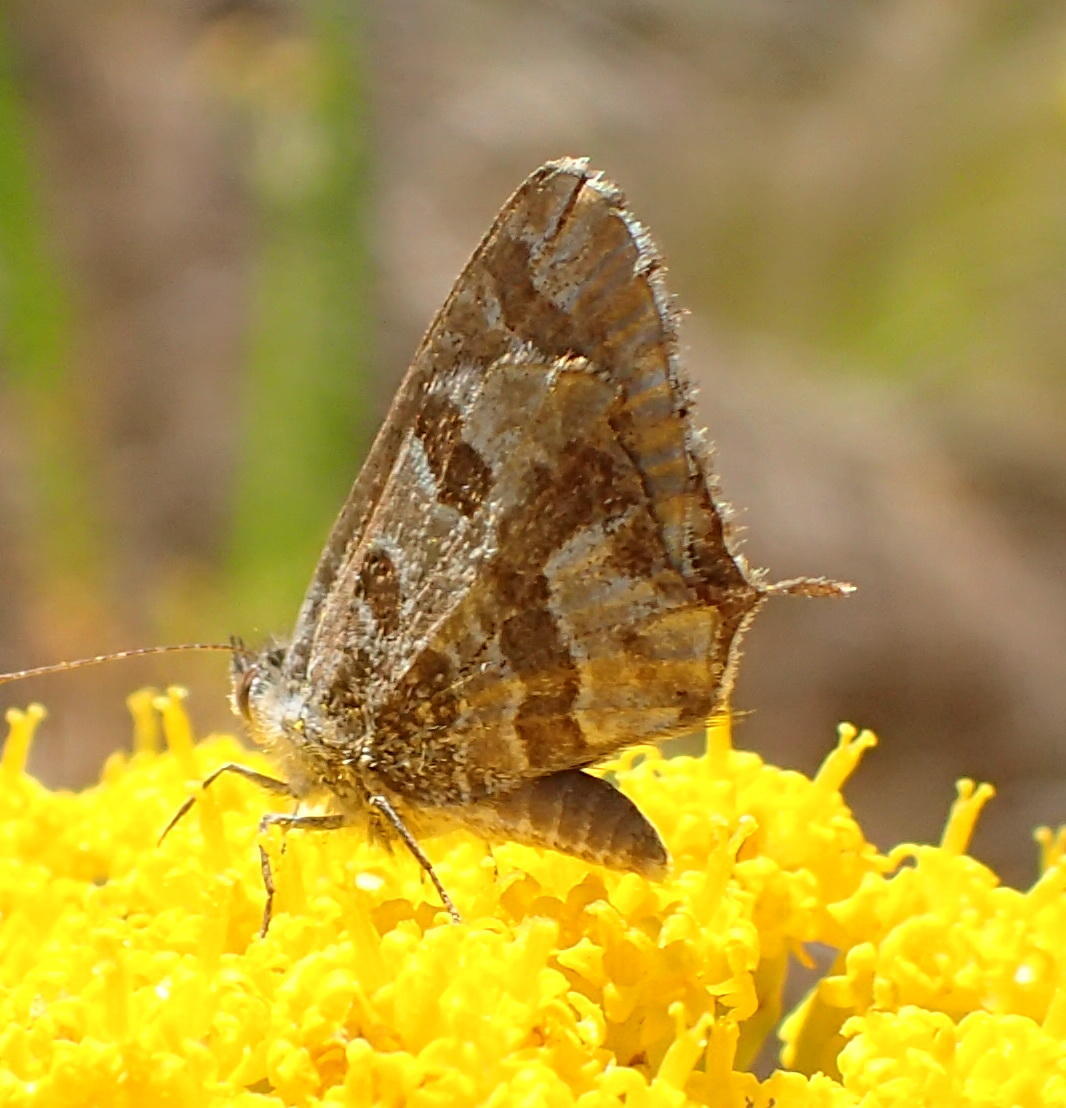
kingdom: Animalia
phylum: Arthropoda
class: Insecta
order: Lepidoptera
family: Lycaenidae
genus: Cacyreus
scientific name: Cacyreus marshalli
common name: Geranium bronze
